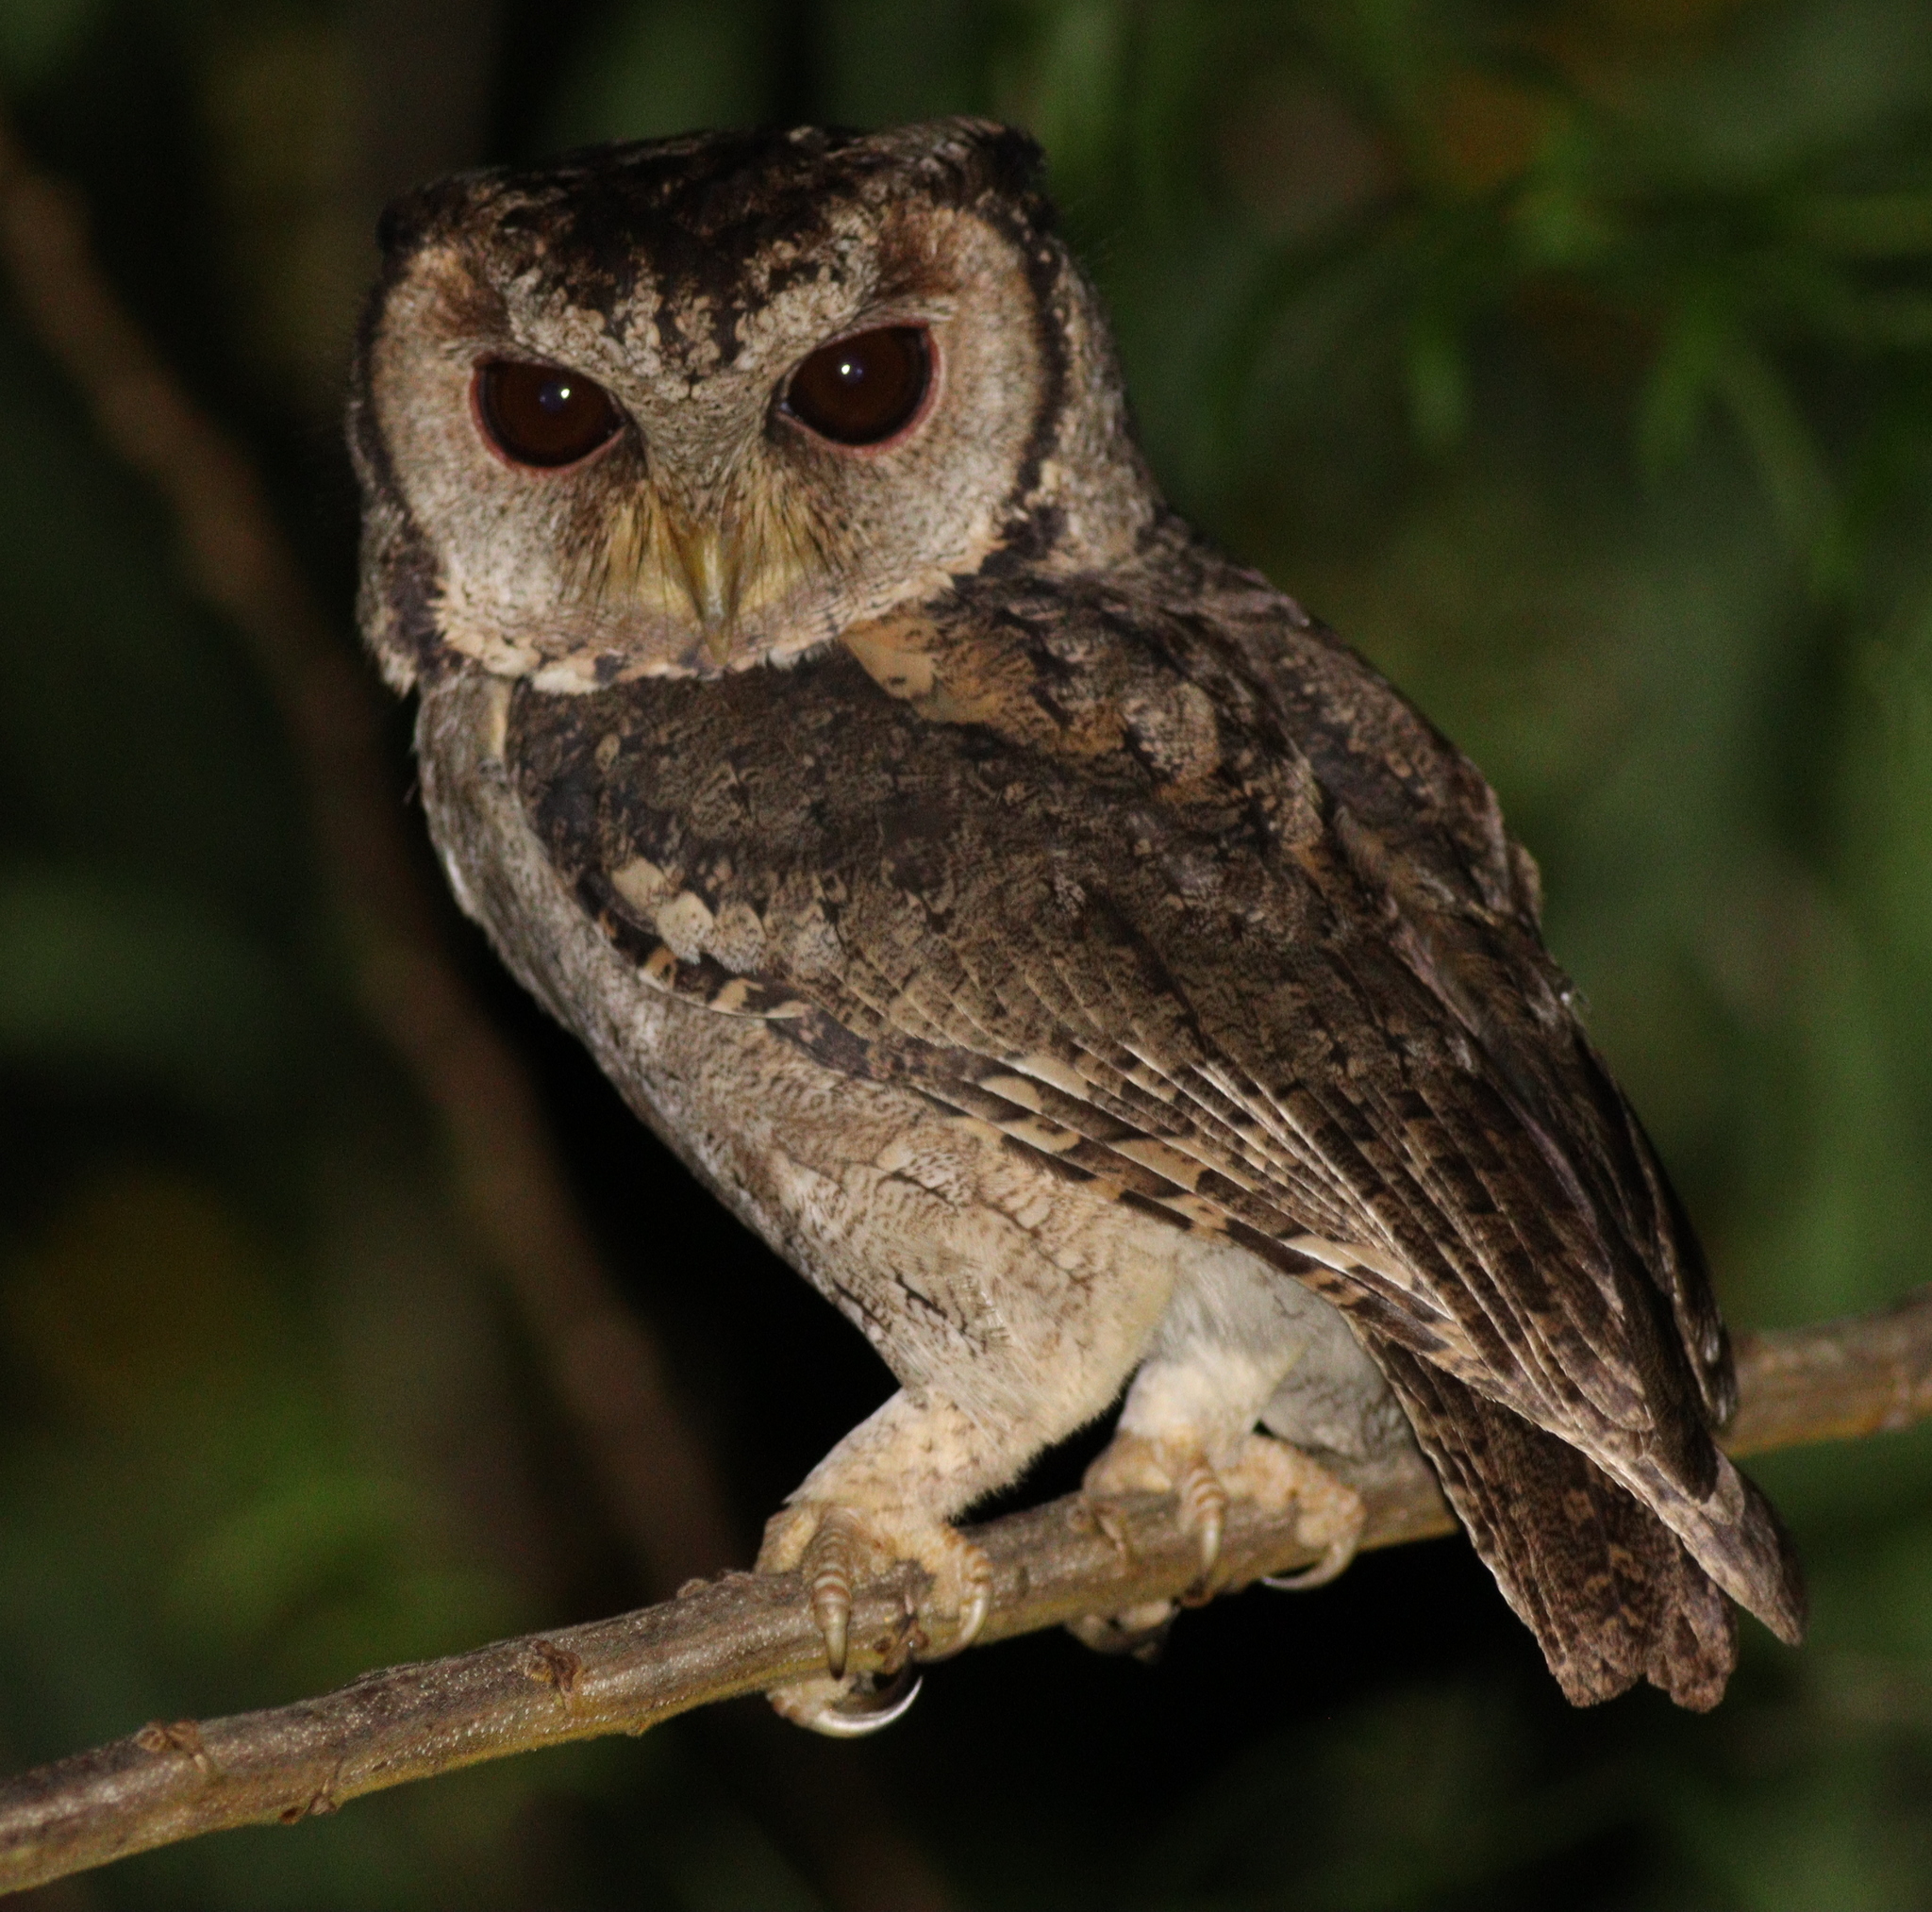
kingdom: Animalia
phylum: Chordata
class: Aves
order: Strigiformes
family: Strigidae
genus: Otus
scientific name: Otus lettia
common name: Collared scops owl
